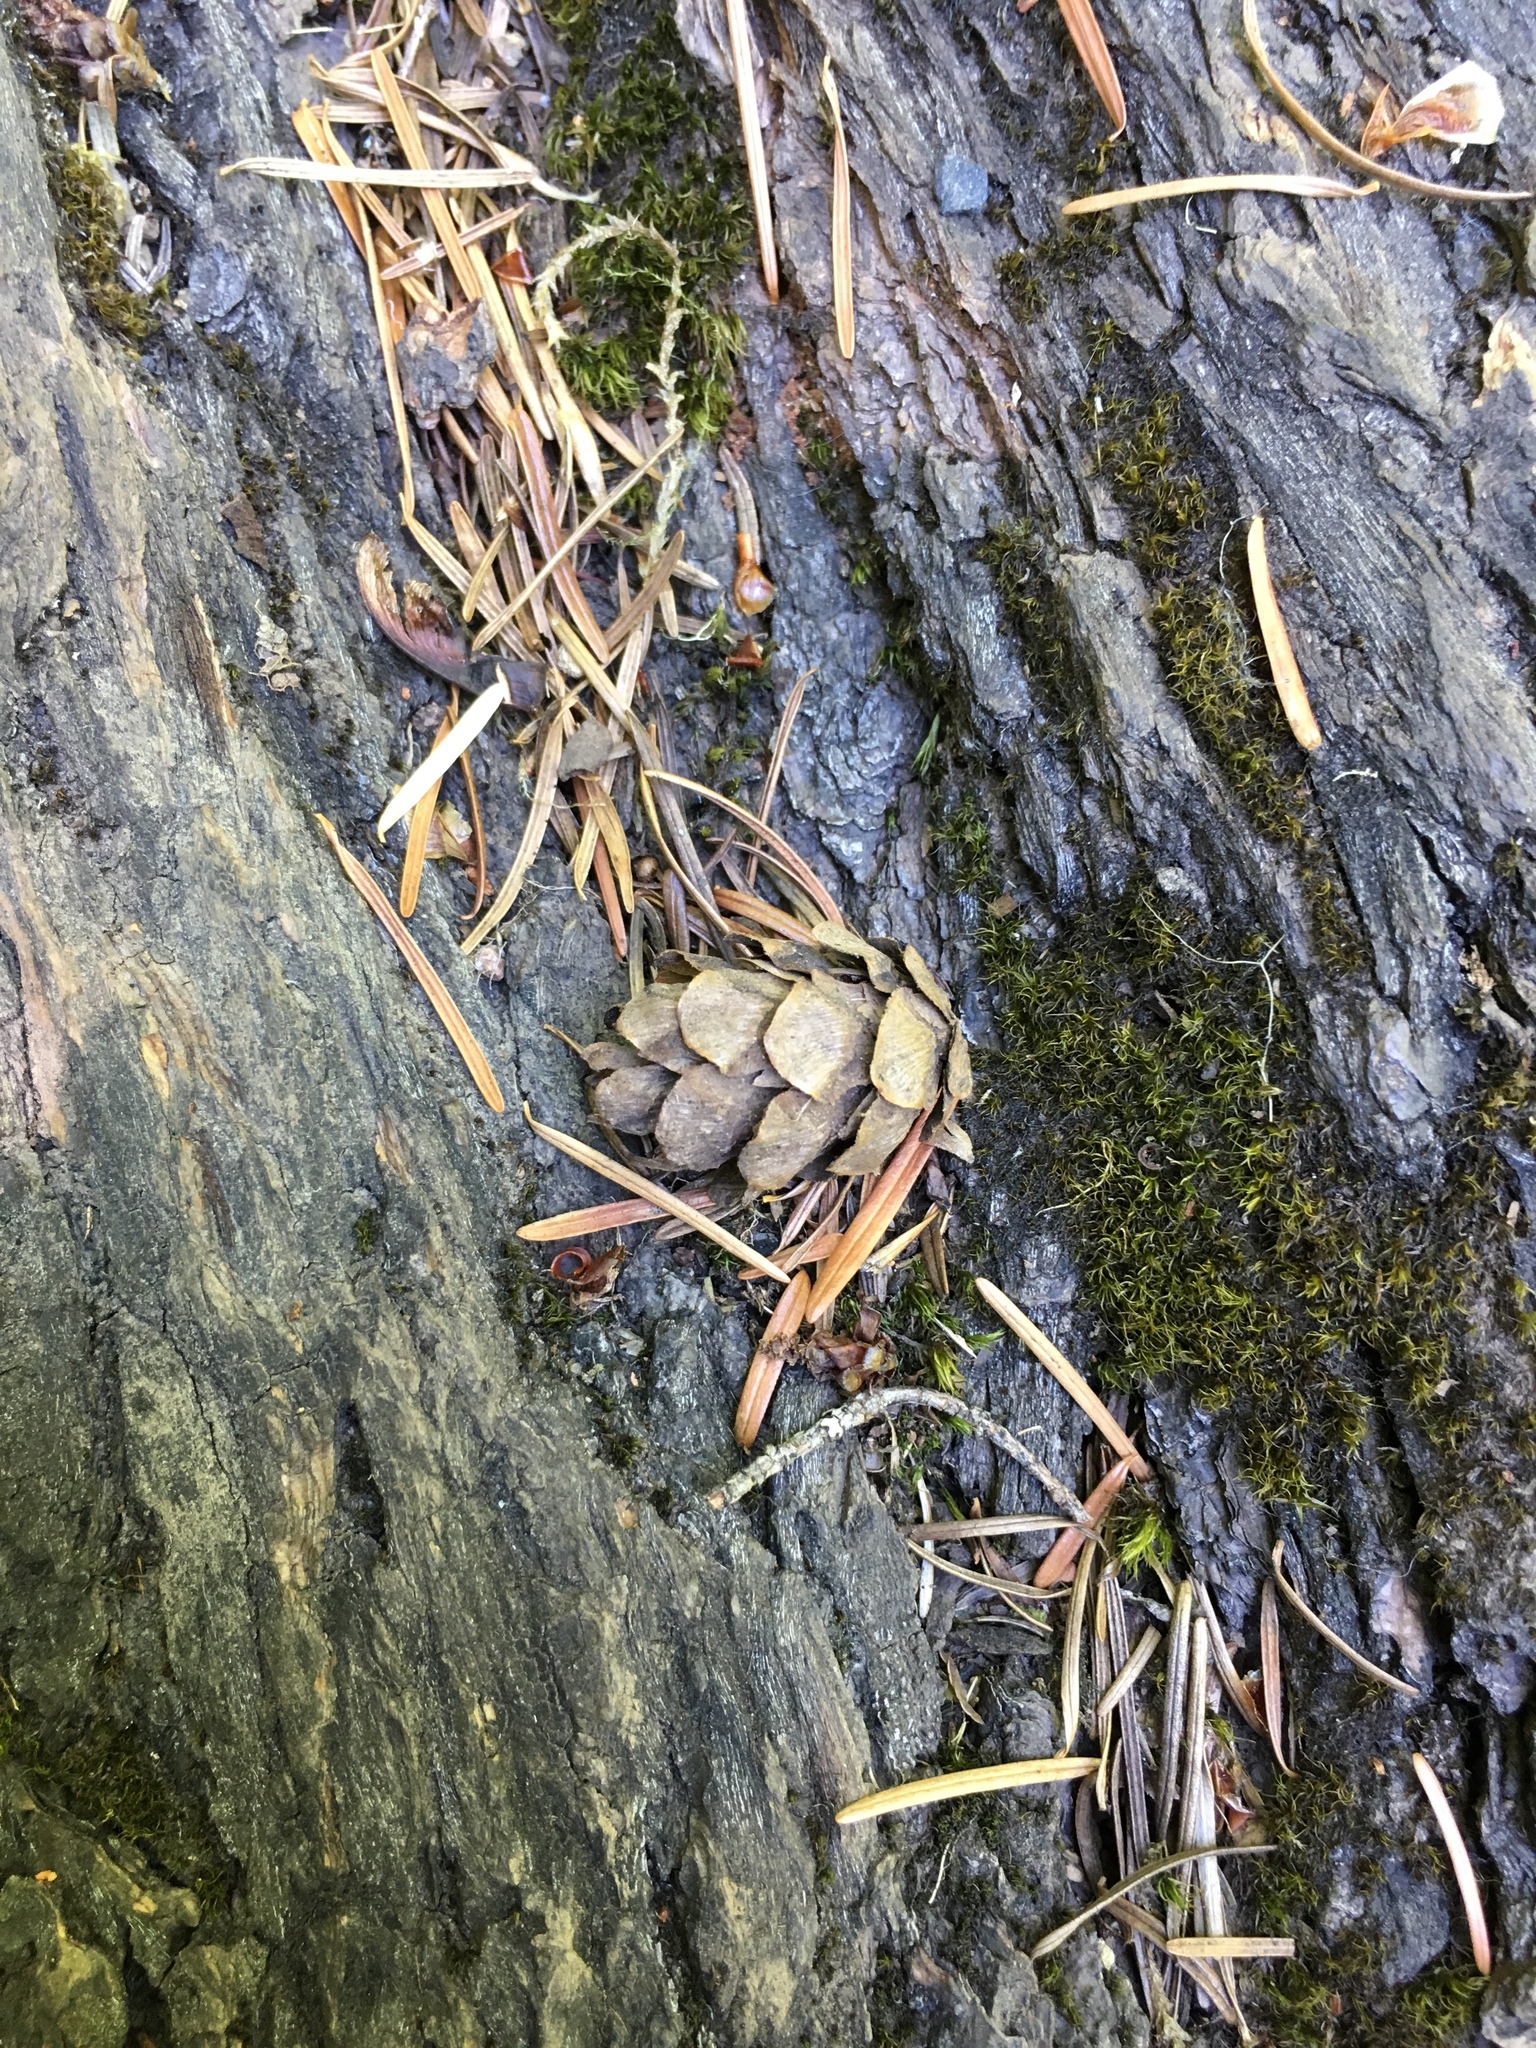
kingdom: Plantae
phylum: Tracheophyta
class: Pinopsida
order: Pinales
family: Pinaceae
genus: Tsuga
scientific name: Tsuga heterophylla
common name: Western hemlock
